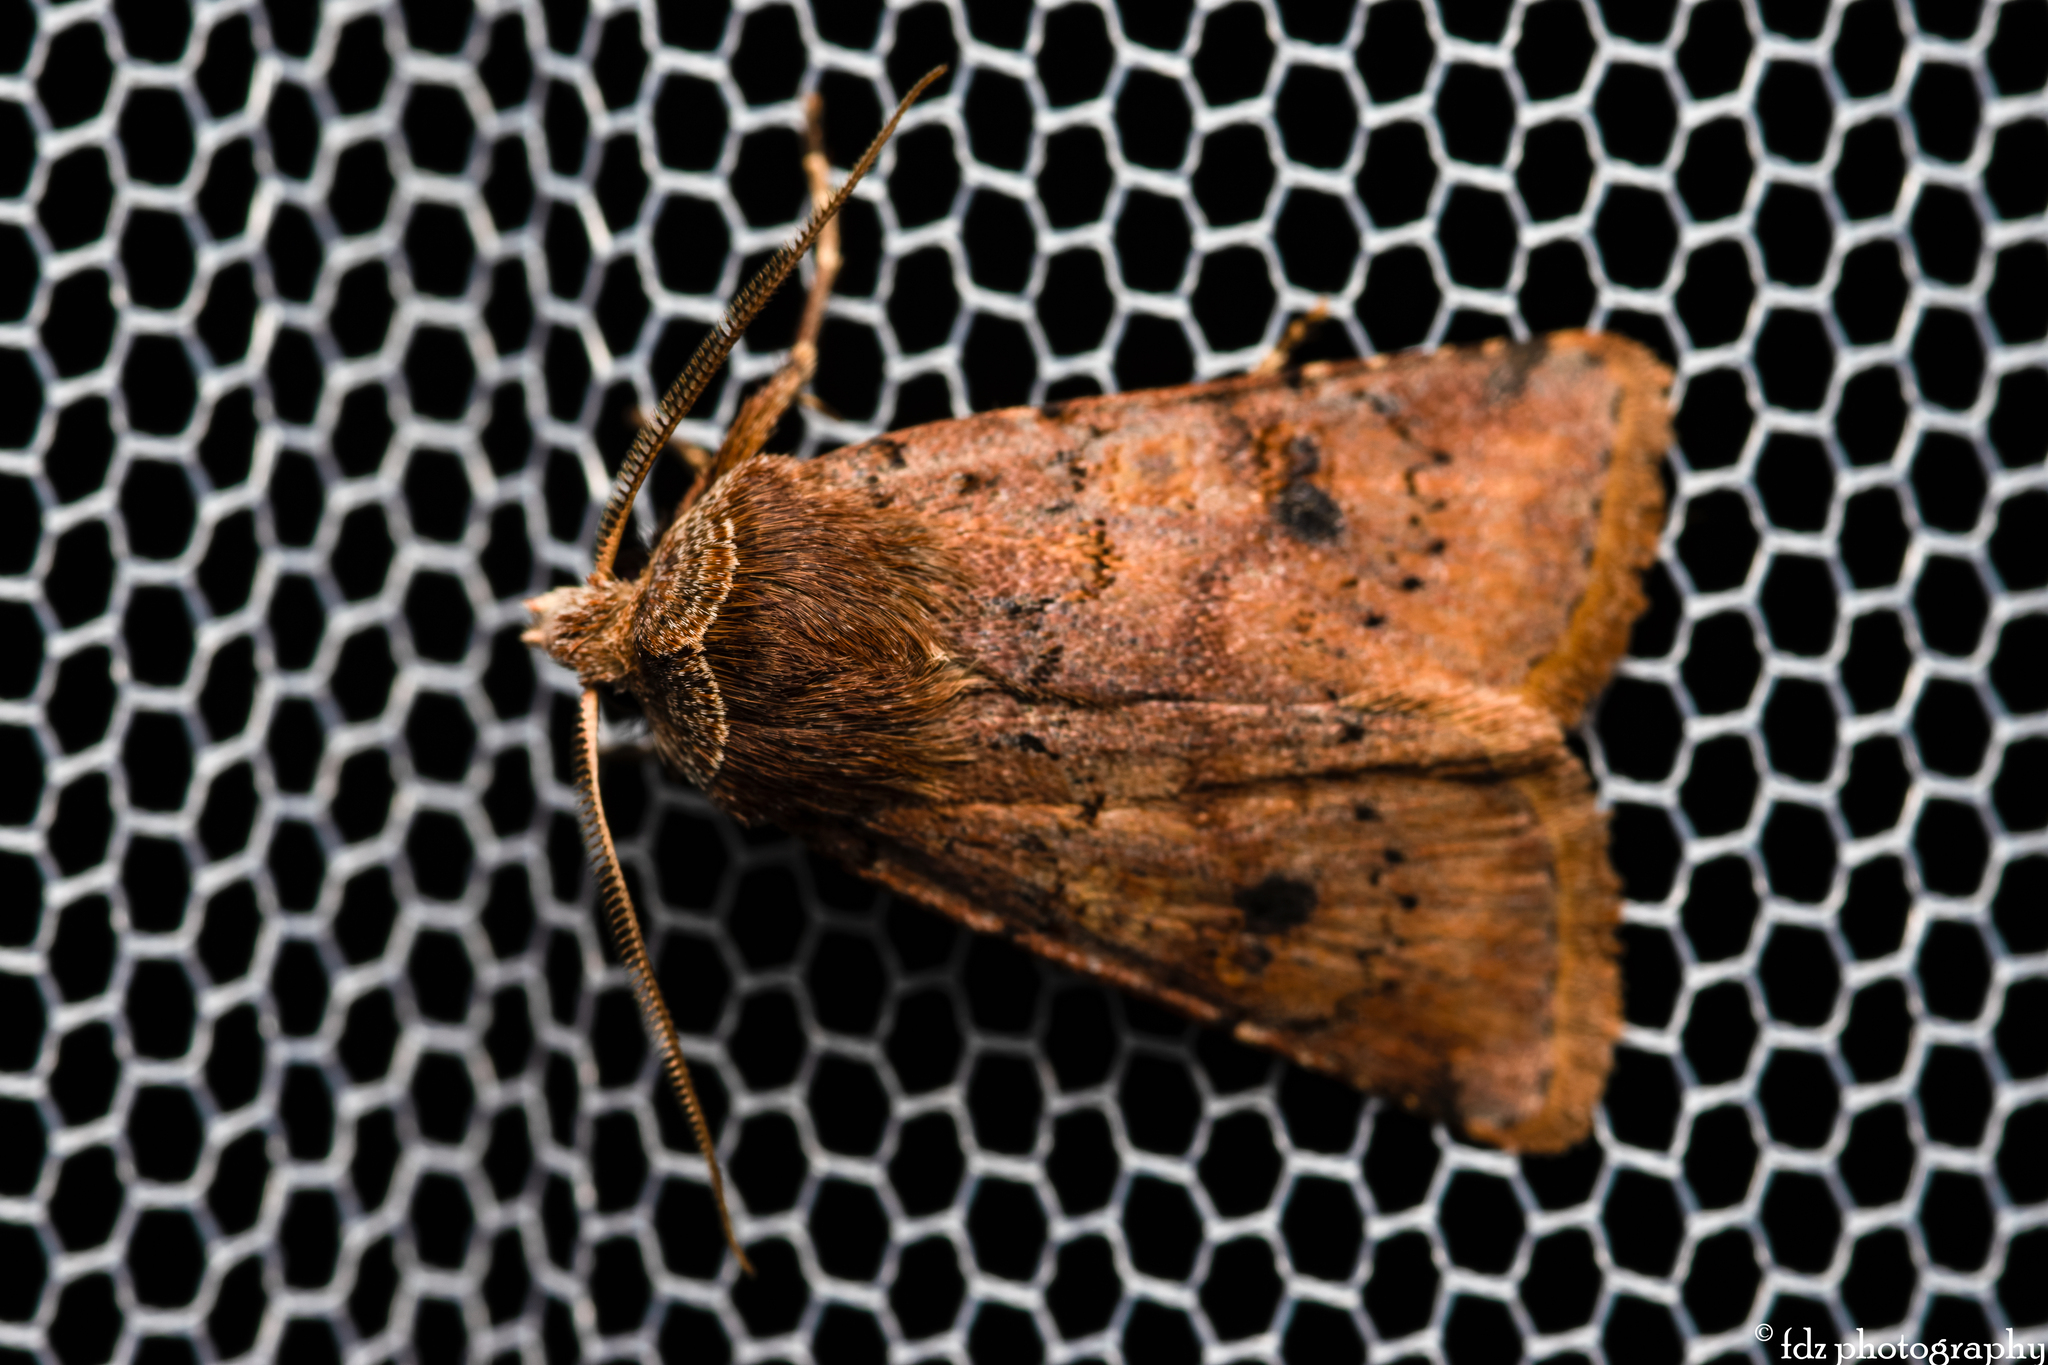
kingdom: Animalia
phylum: Arthropoda
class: Insecta
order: Lepidoptera
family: Noctuidae
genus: Cerastis
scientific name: Cerastis faceta
